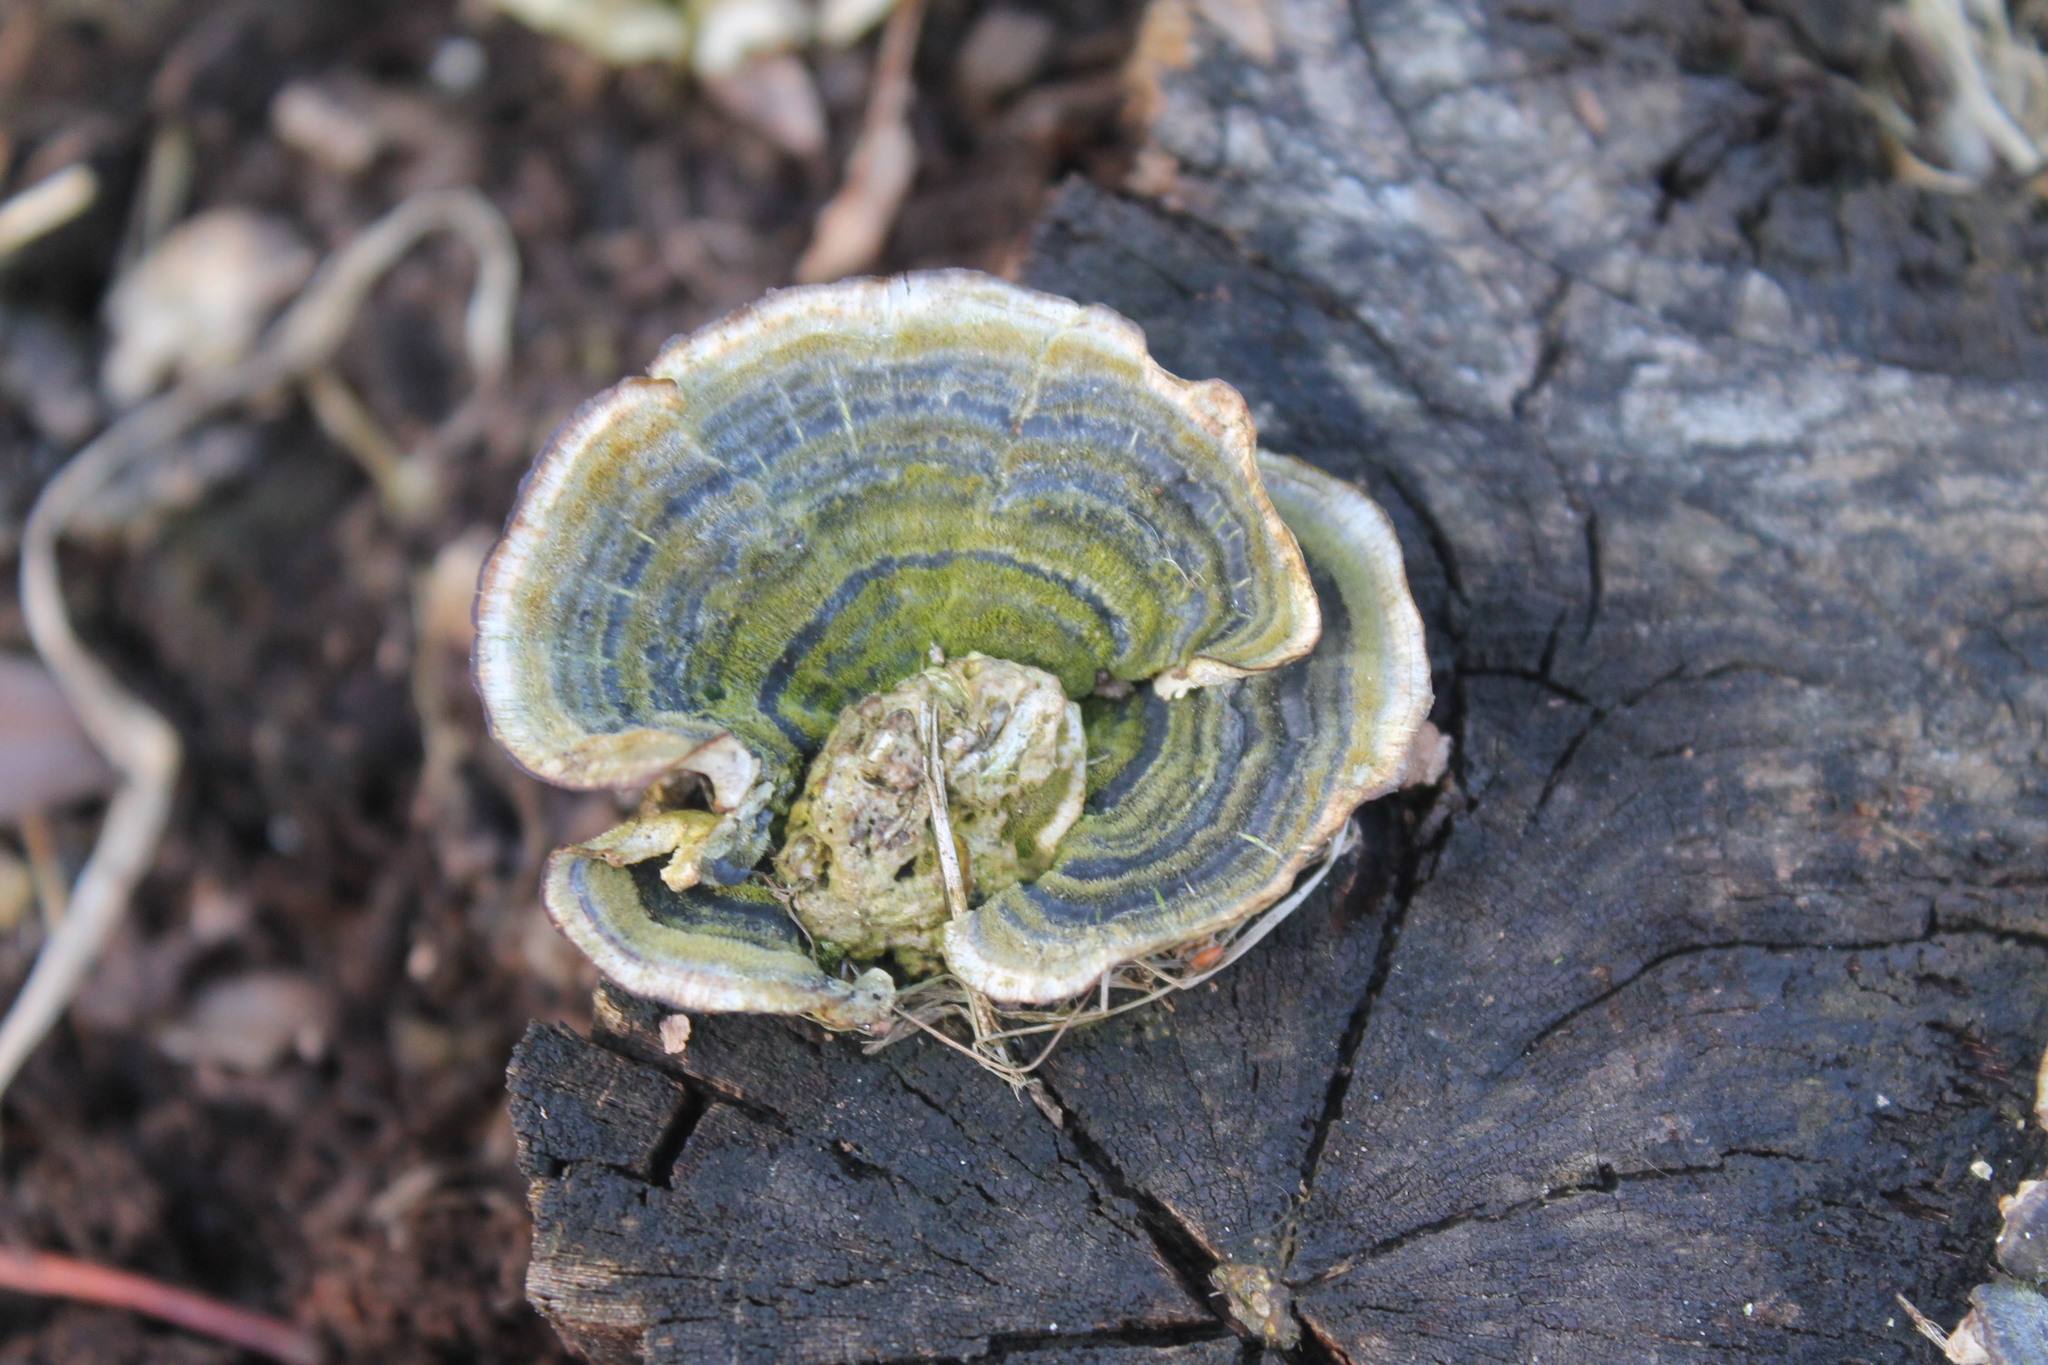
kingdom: Fungi
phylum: Basidiomycota
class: Agaricomycetes
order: Polyporales
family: Polyporaceae
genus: Trametes
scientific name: Trametes versicolor
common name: Turkeytail
